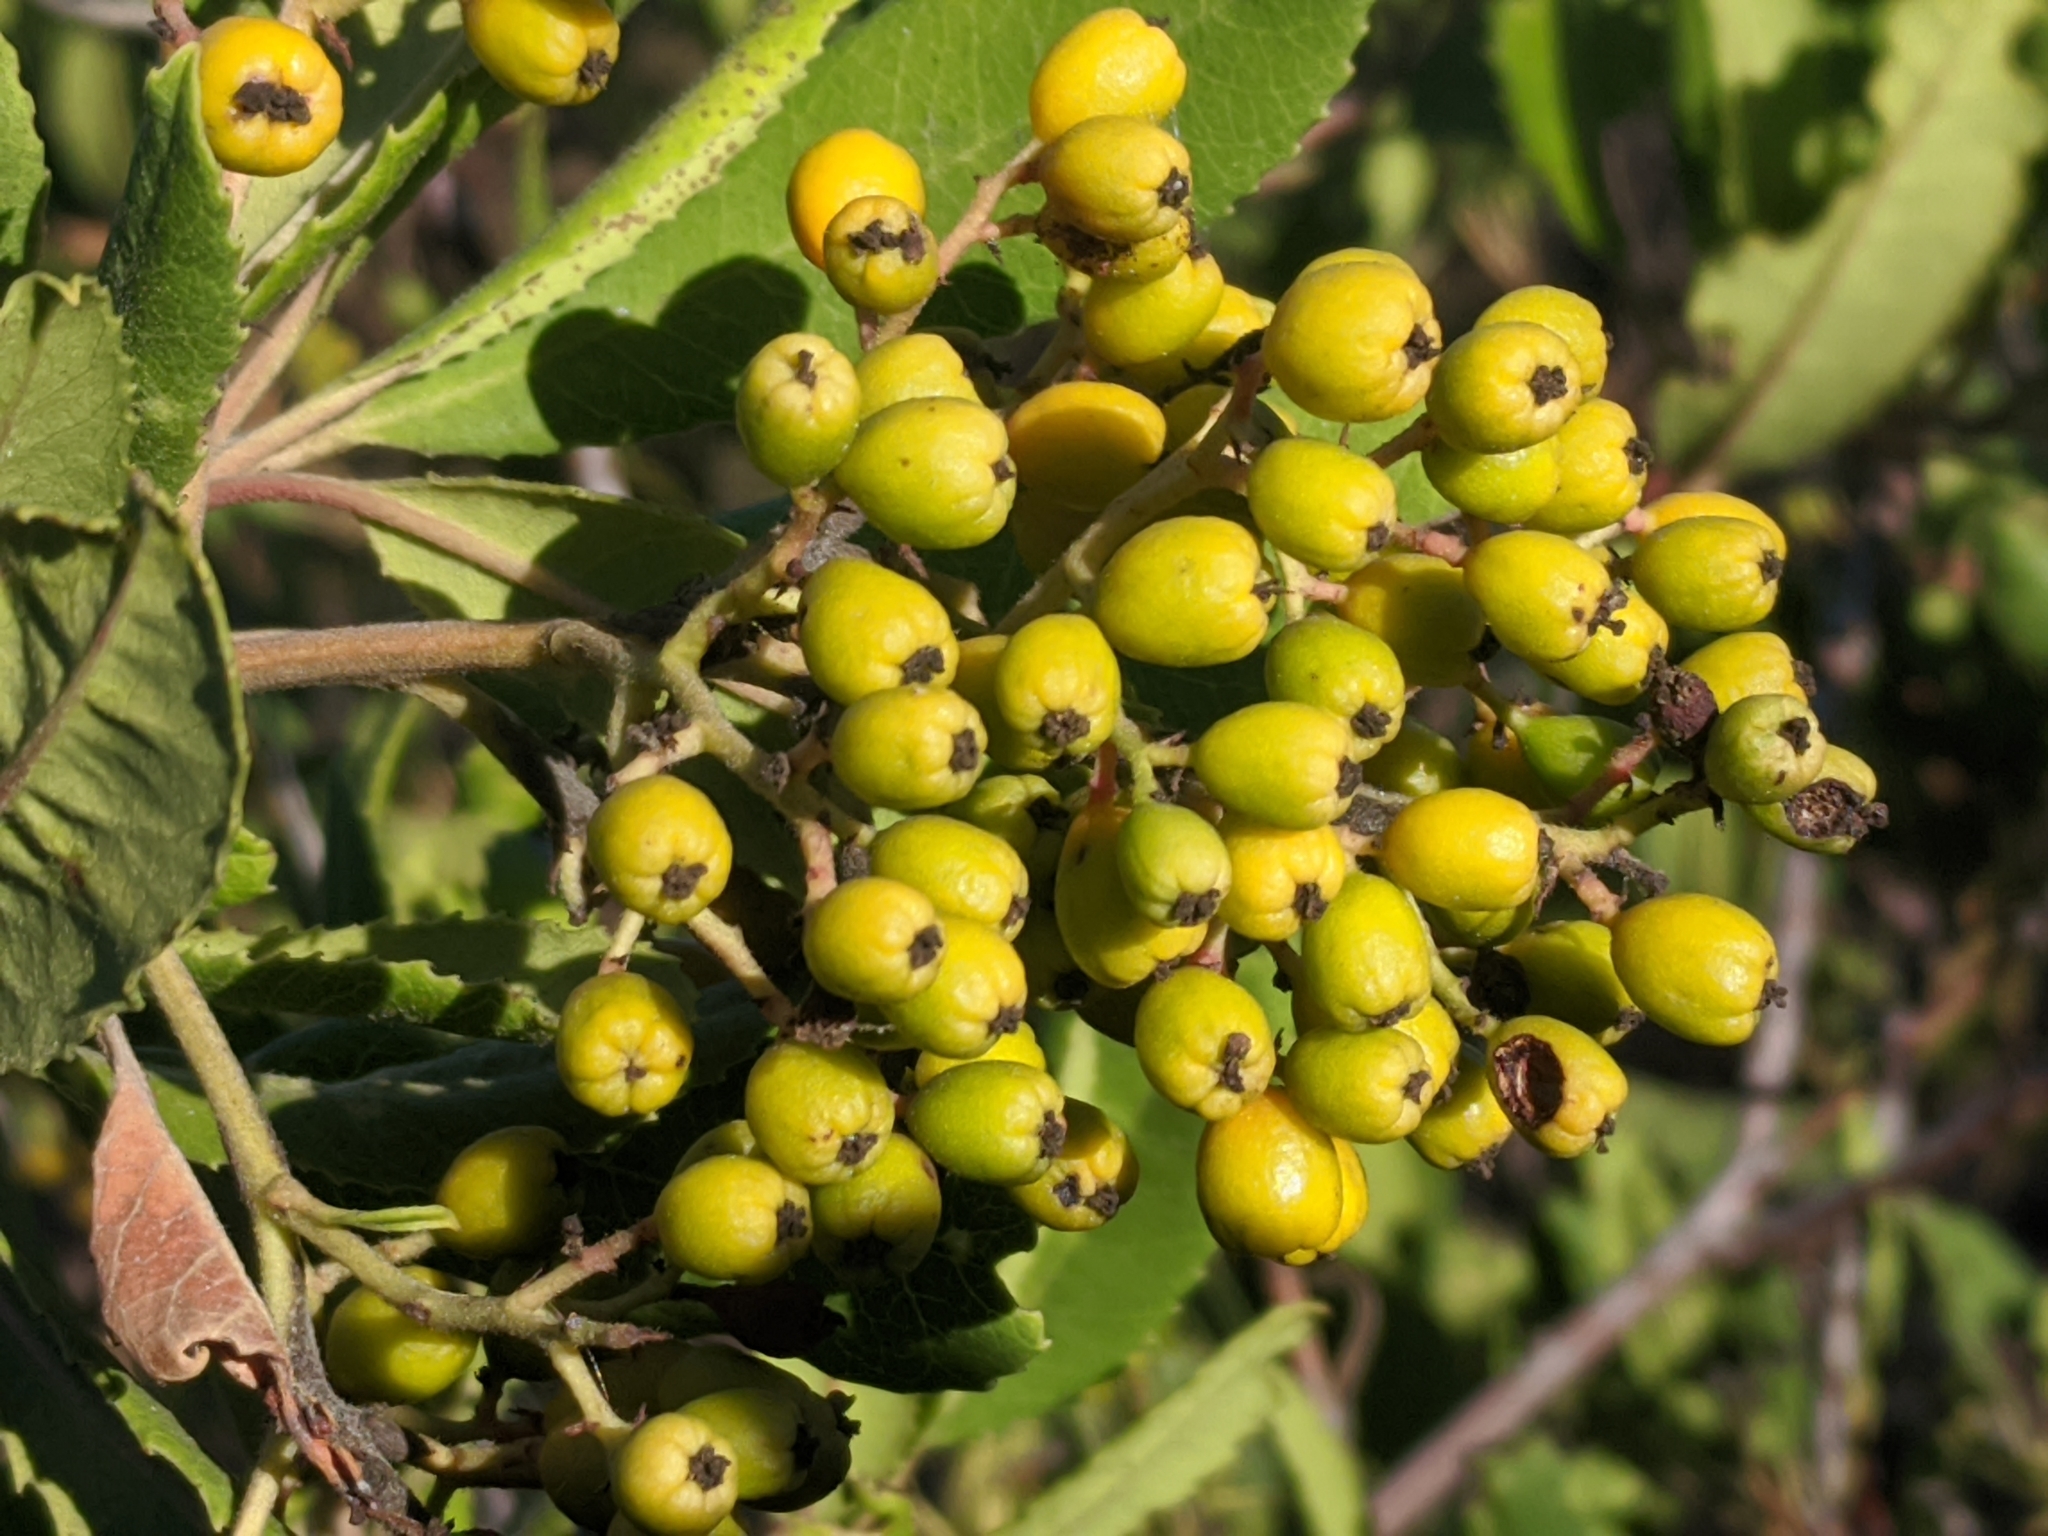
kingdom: Plantae
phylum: Tracheophyta
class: Magnoliopsida
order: Rosales
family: Rosaceae
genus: Heteromeles
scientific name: Heteromeles arbutifolia
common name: California-holly
